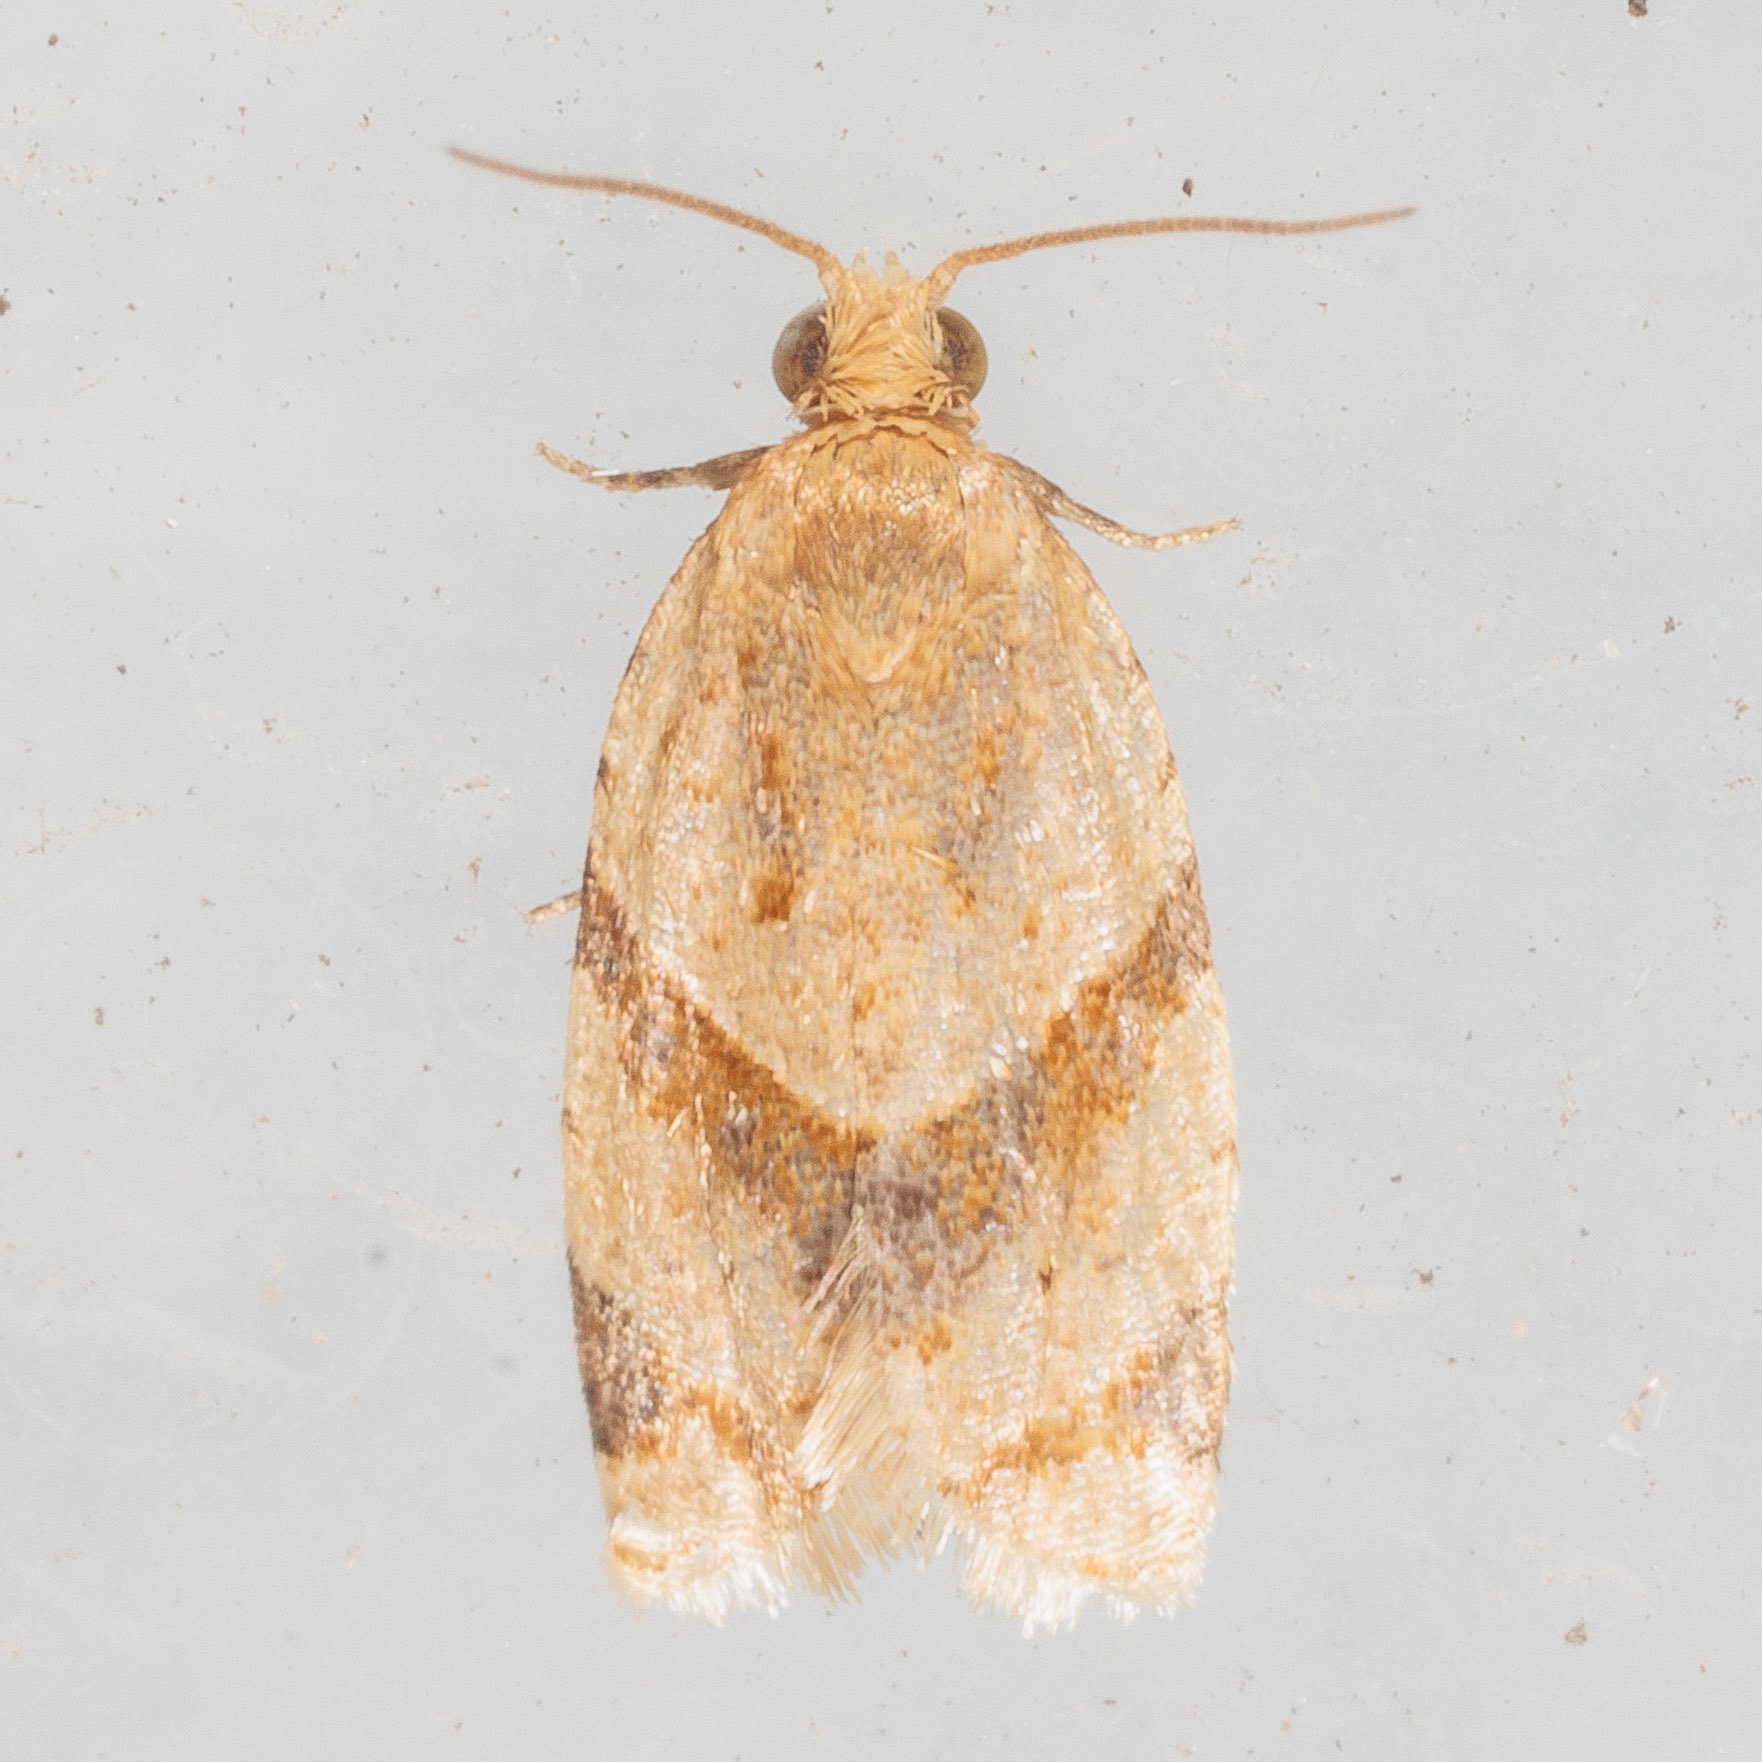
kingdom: Animalia
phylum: Arthropoda
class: Insecta
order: Lepidoptera
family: Tortricidae
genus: Clepsis
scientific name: Clepsis peritana
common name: Garden tortrix
